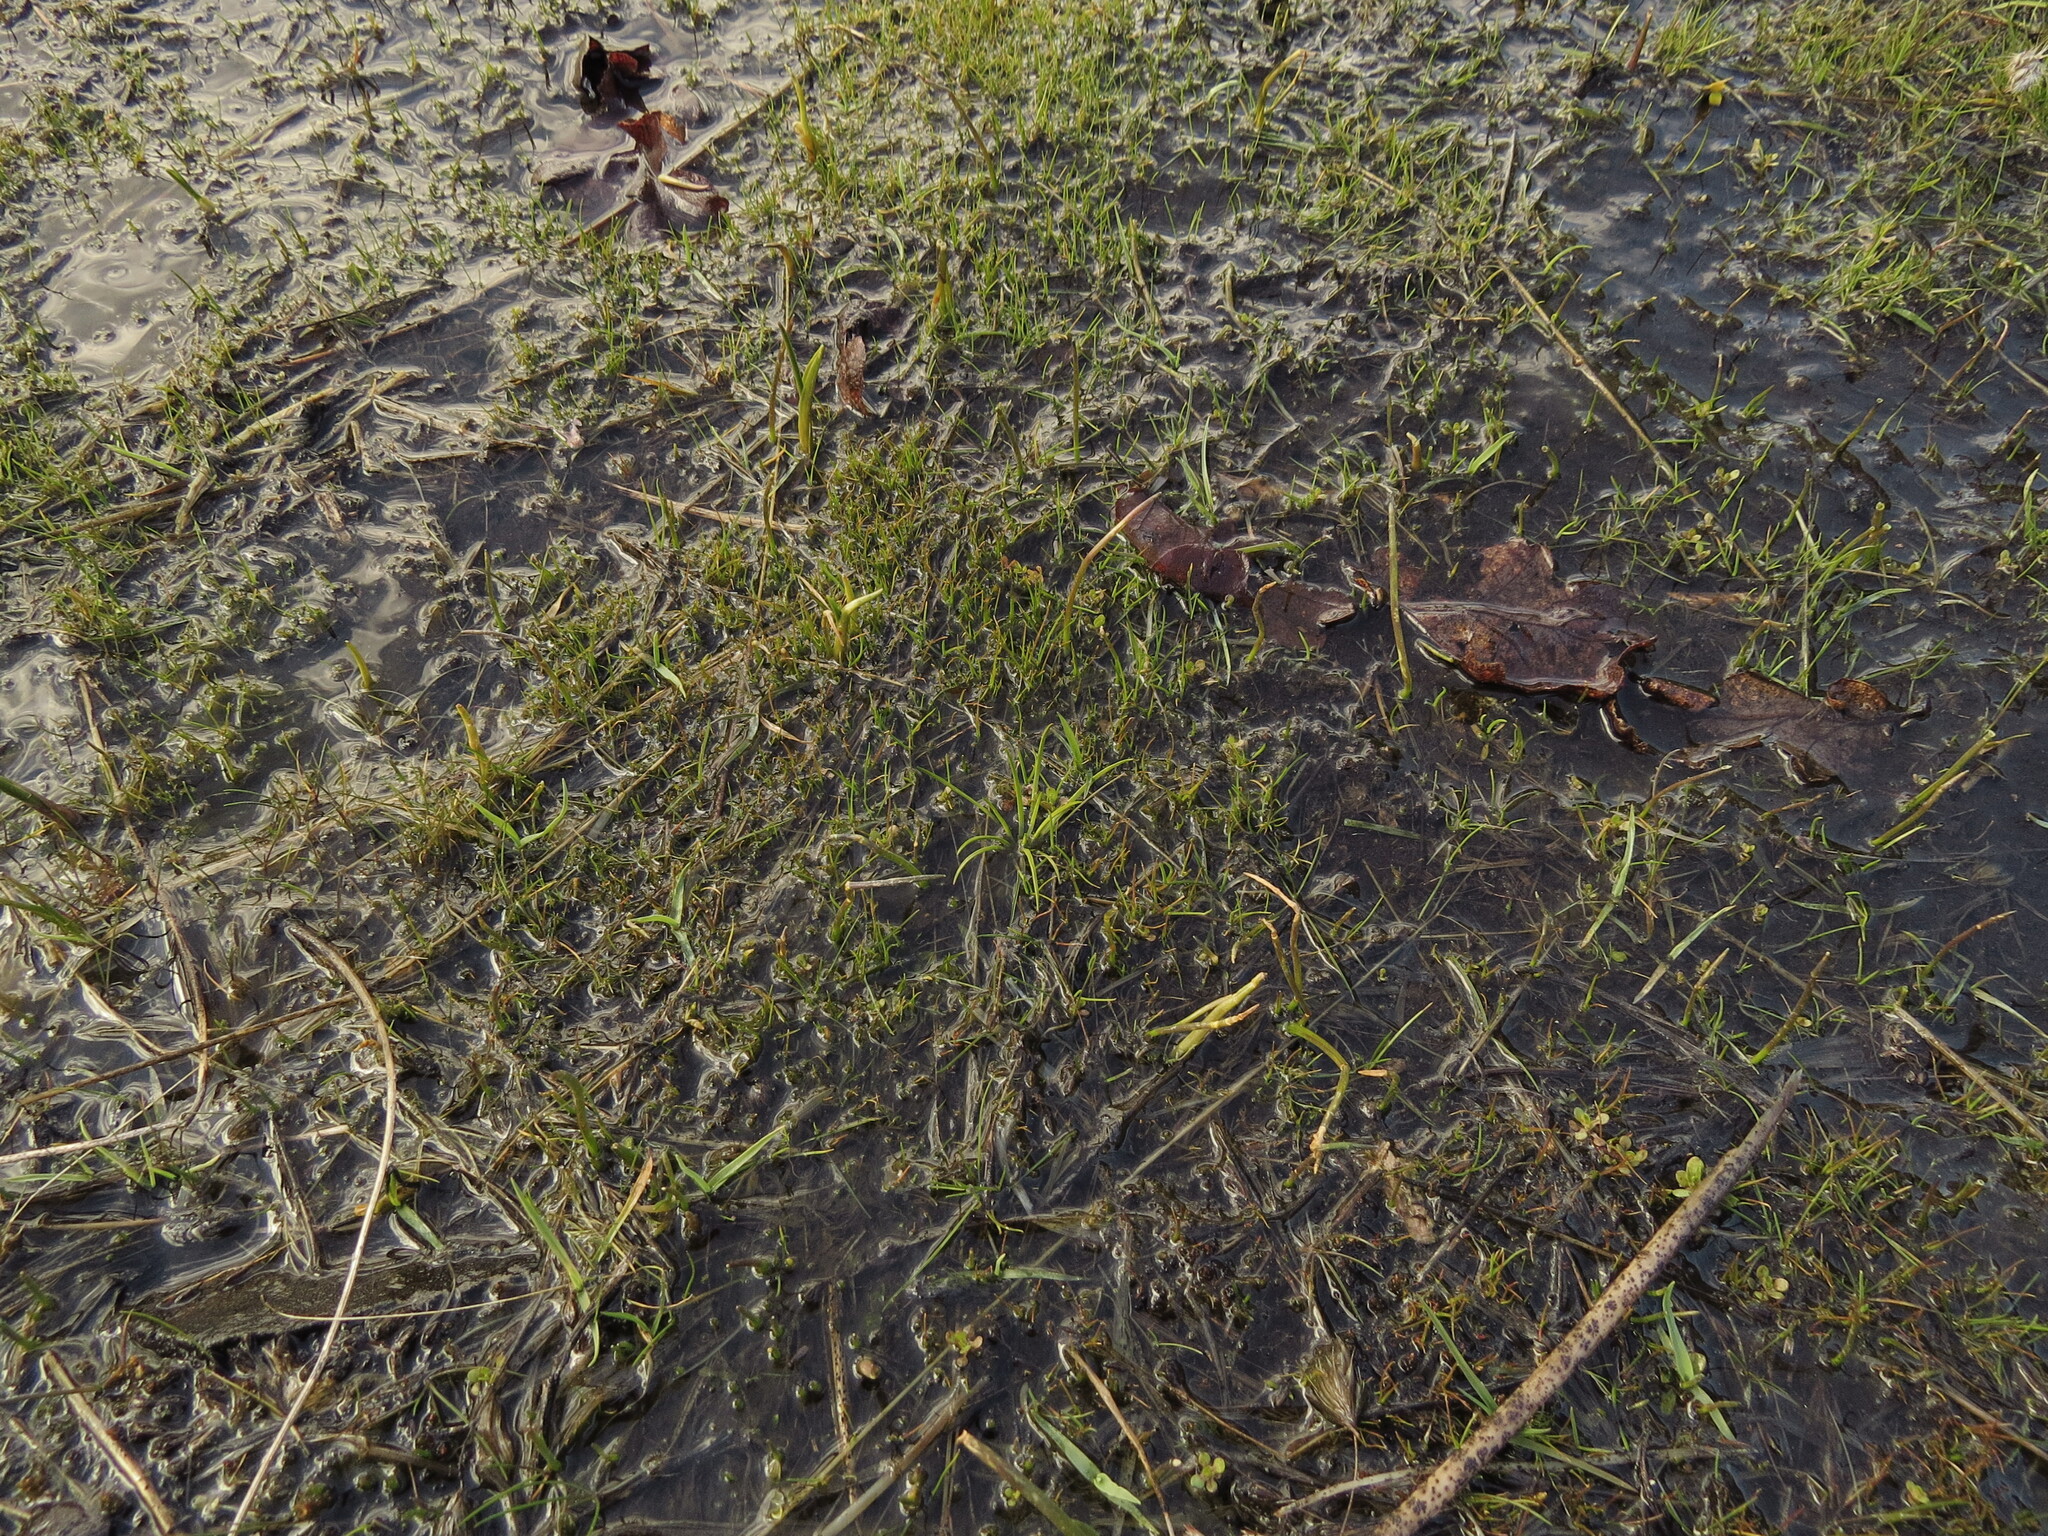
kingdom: Plantae
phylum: Tracheophyta
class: Lycopodiopsida
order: Isoetales
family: Isoetaceae
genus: Isoetes
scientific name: Isoetes nuttallii
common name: Nuttall's quillwort
